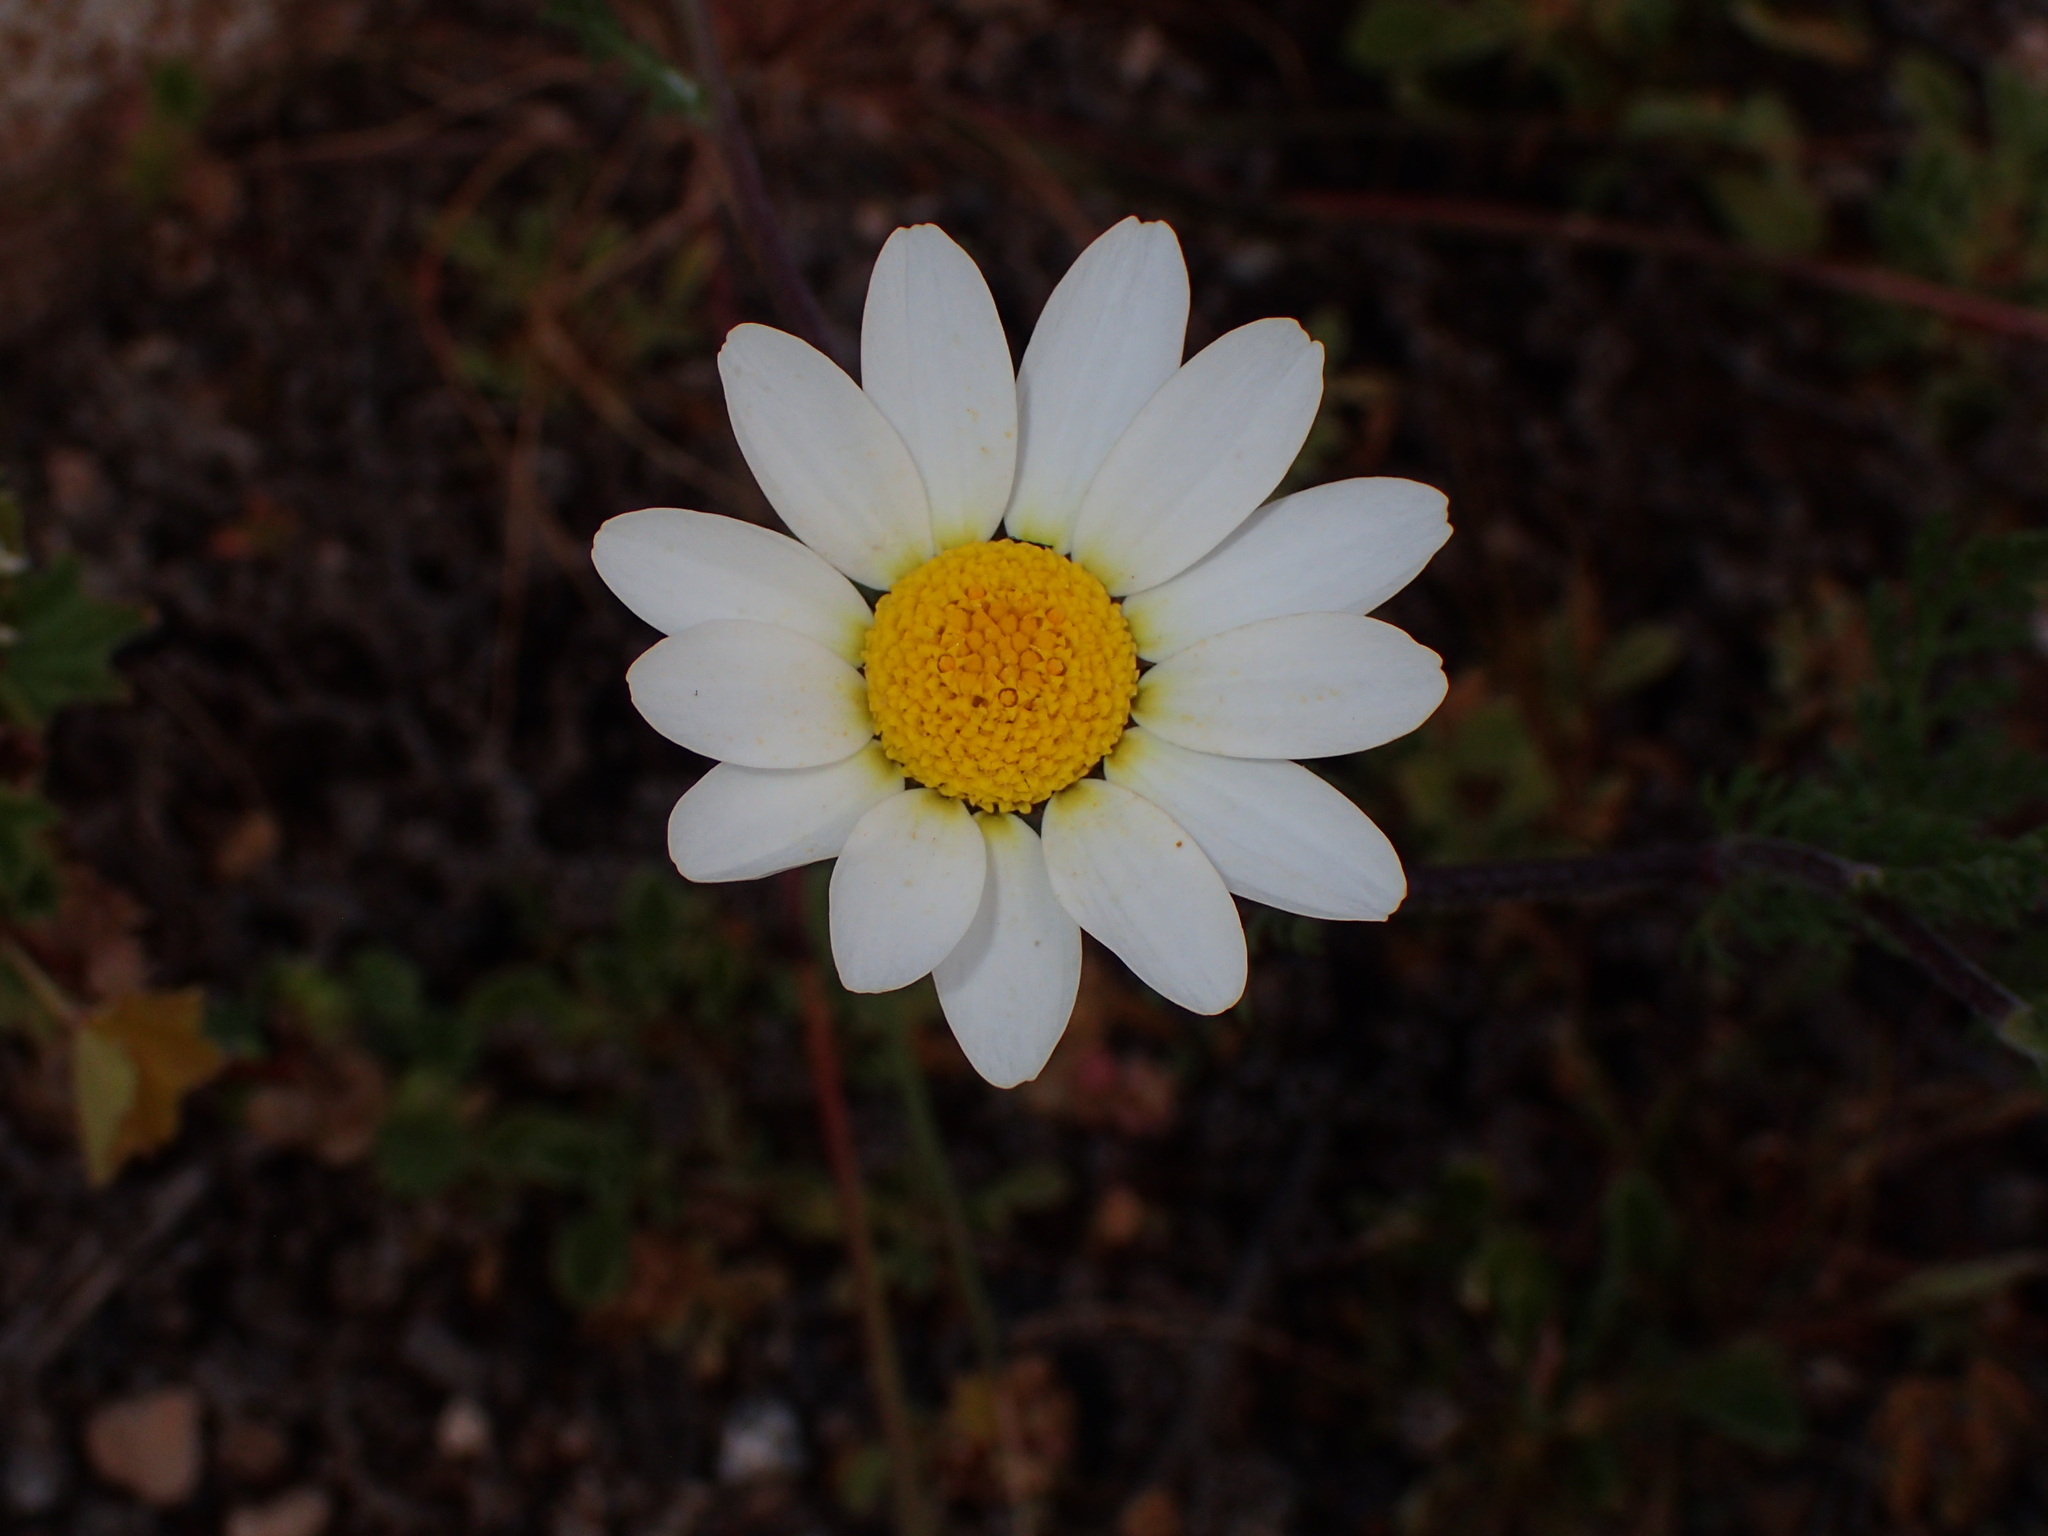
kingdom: Plantae
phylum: Tracheophyta
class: Magnoliopsida
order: Asterales
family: Asteraceae
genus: Glebionis
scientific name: Glebionis coronaria
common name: Crowndaisy
